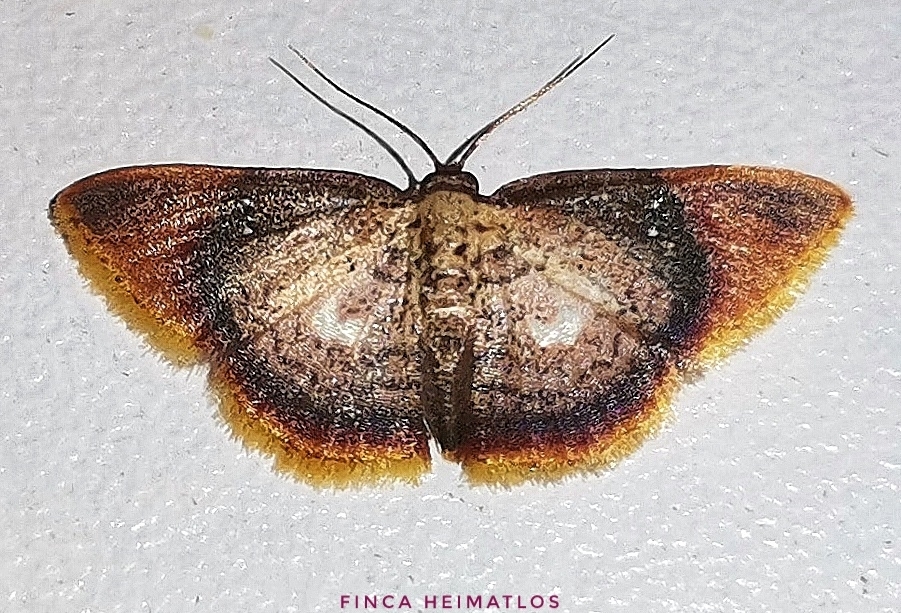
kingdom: Animalia
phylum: Arthropoda
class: Insecta
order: Lepidoptera
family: Geometridae
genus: Tricentra
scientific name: Tricentra albiguttata
